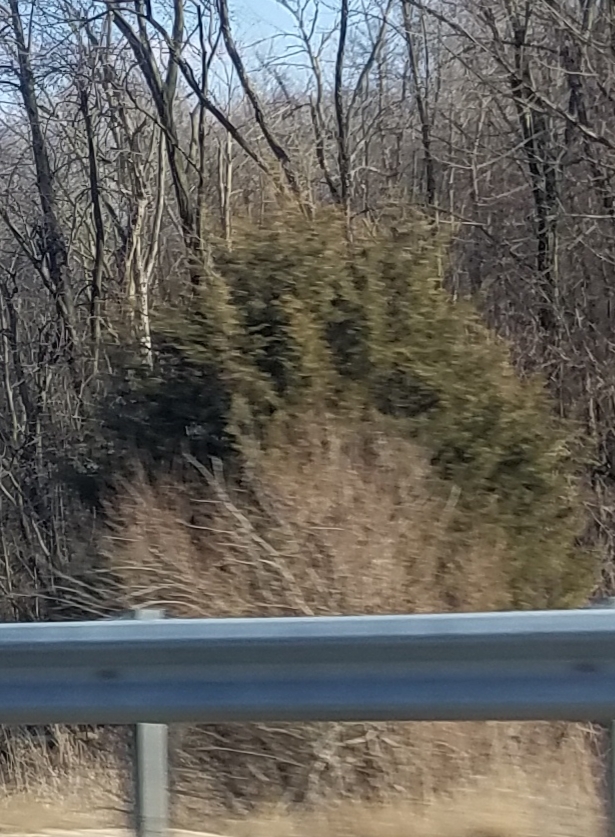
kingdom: Plantae
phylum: Tracheophyta
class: Pinopsida
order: Pinales
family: Cupressaceae
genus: Juniperus
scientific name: Juniperus virginiana
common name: Red juniper
